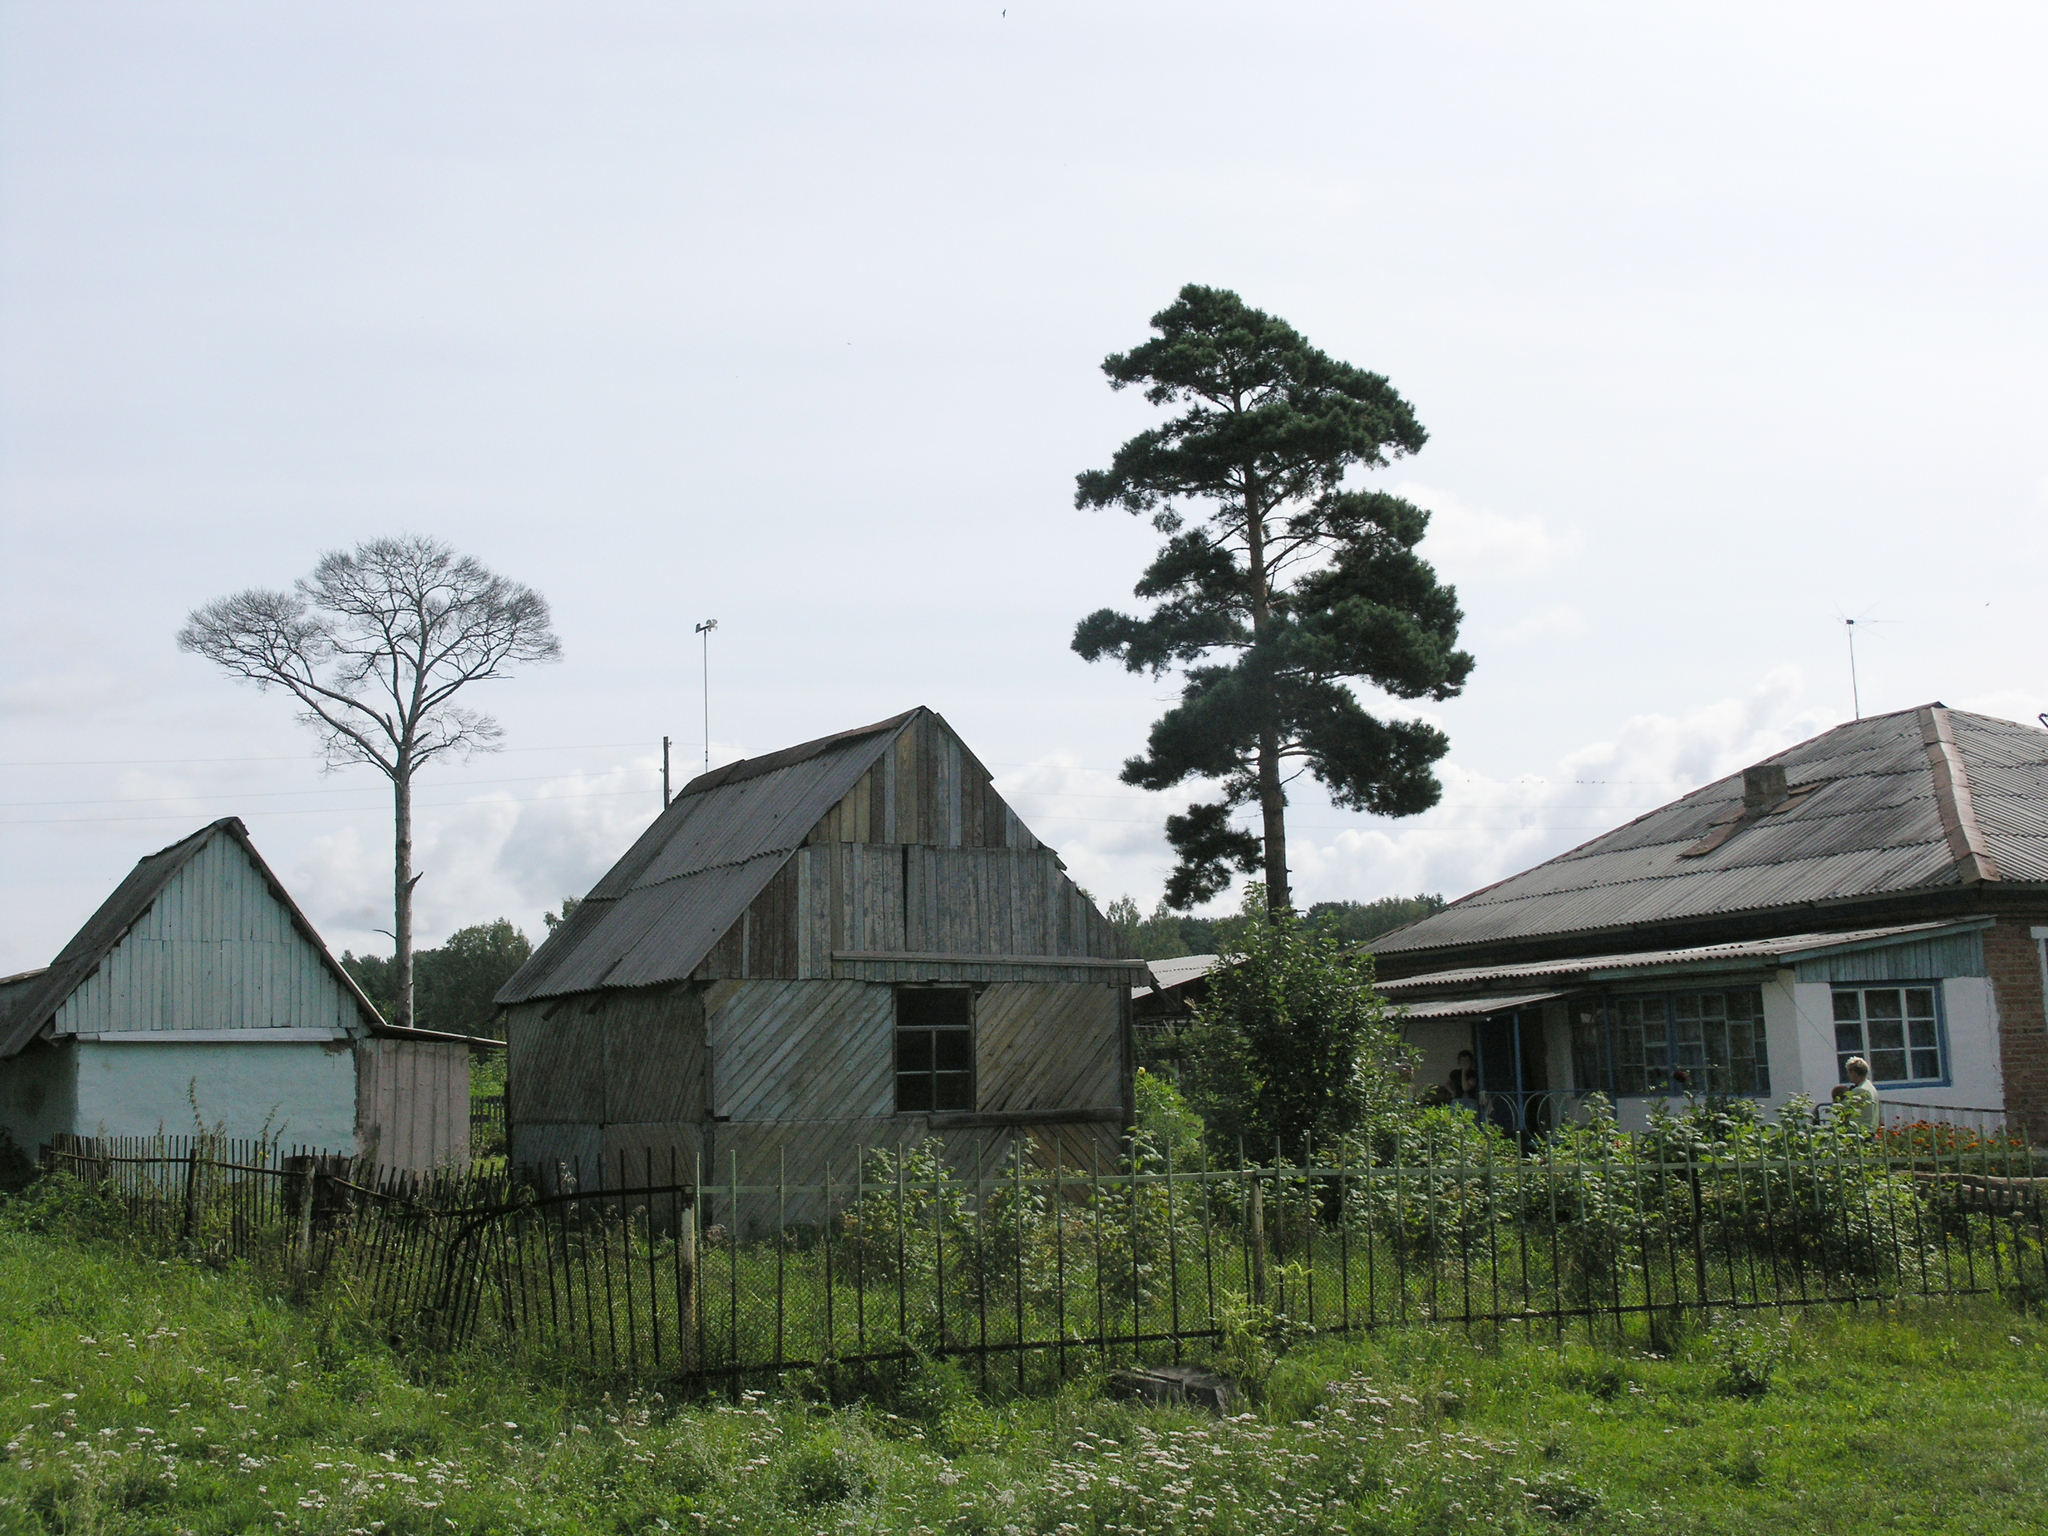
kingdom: Plantae
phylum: Tracheophyta
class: Pinopsida
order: Pinales
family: Pinaceae
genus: Pinus
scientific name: Pinus sylvestris
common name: Scots pine
